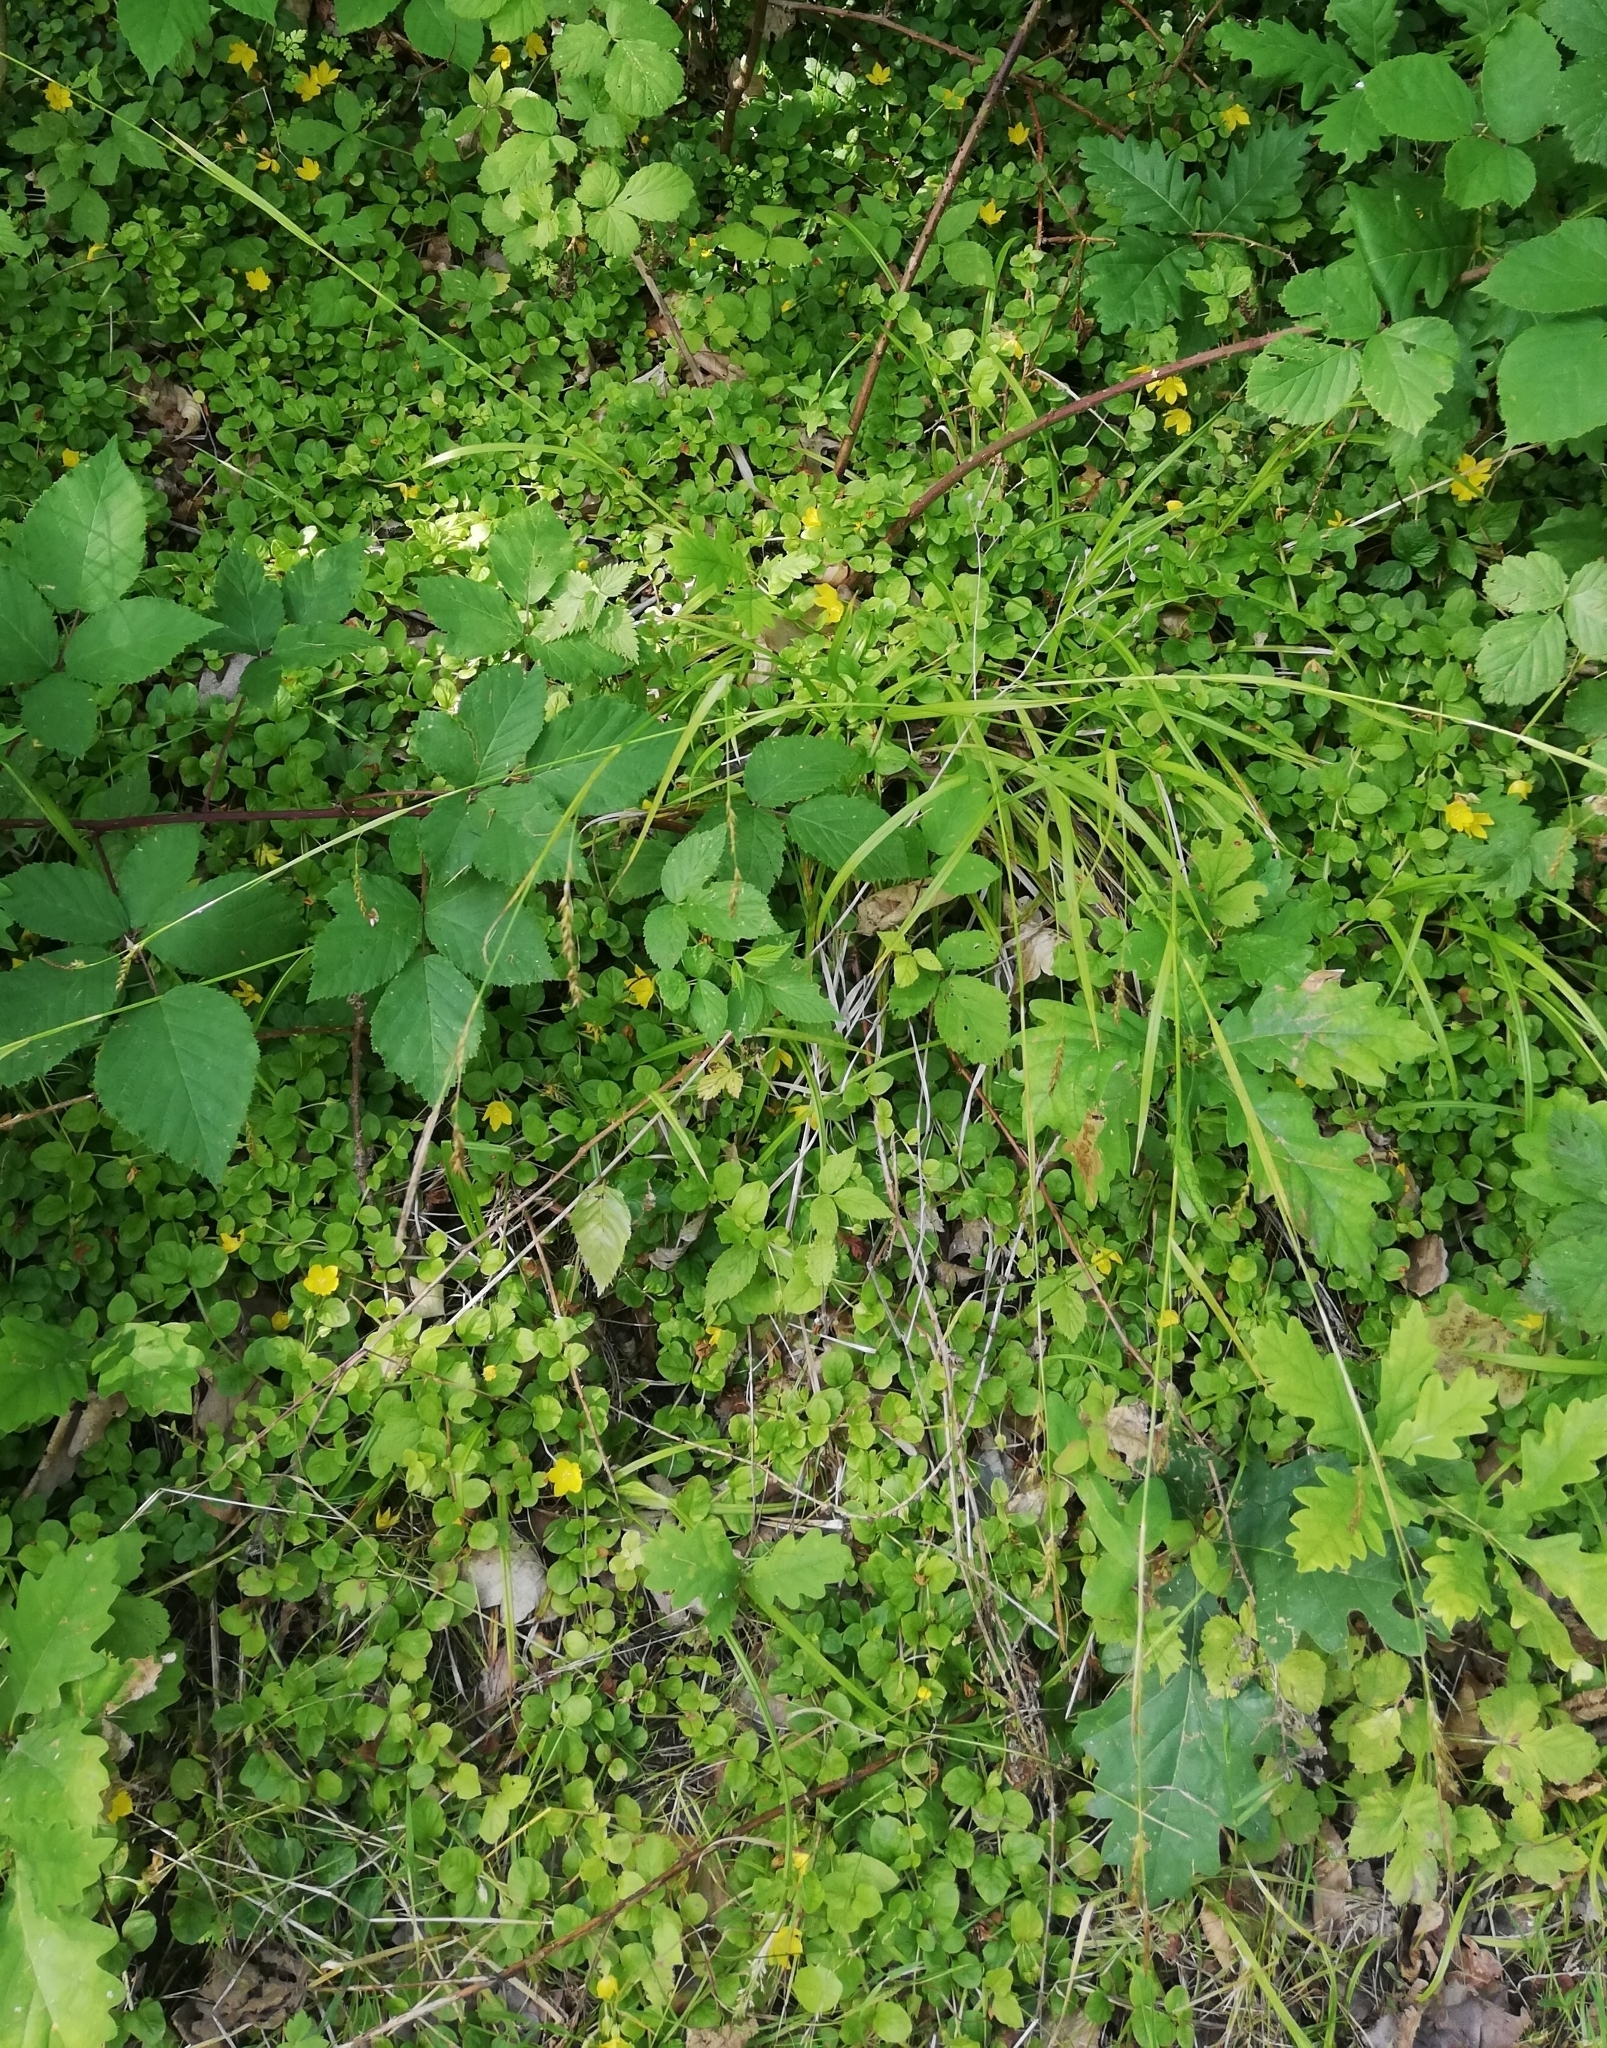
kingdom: Plantae
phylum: Tracheophyta
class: Magnoliopsida
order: Ericales
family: Primulaceae
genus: Lysimachia
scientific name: Lysimachia nummularia
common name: Moneywort
